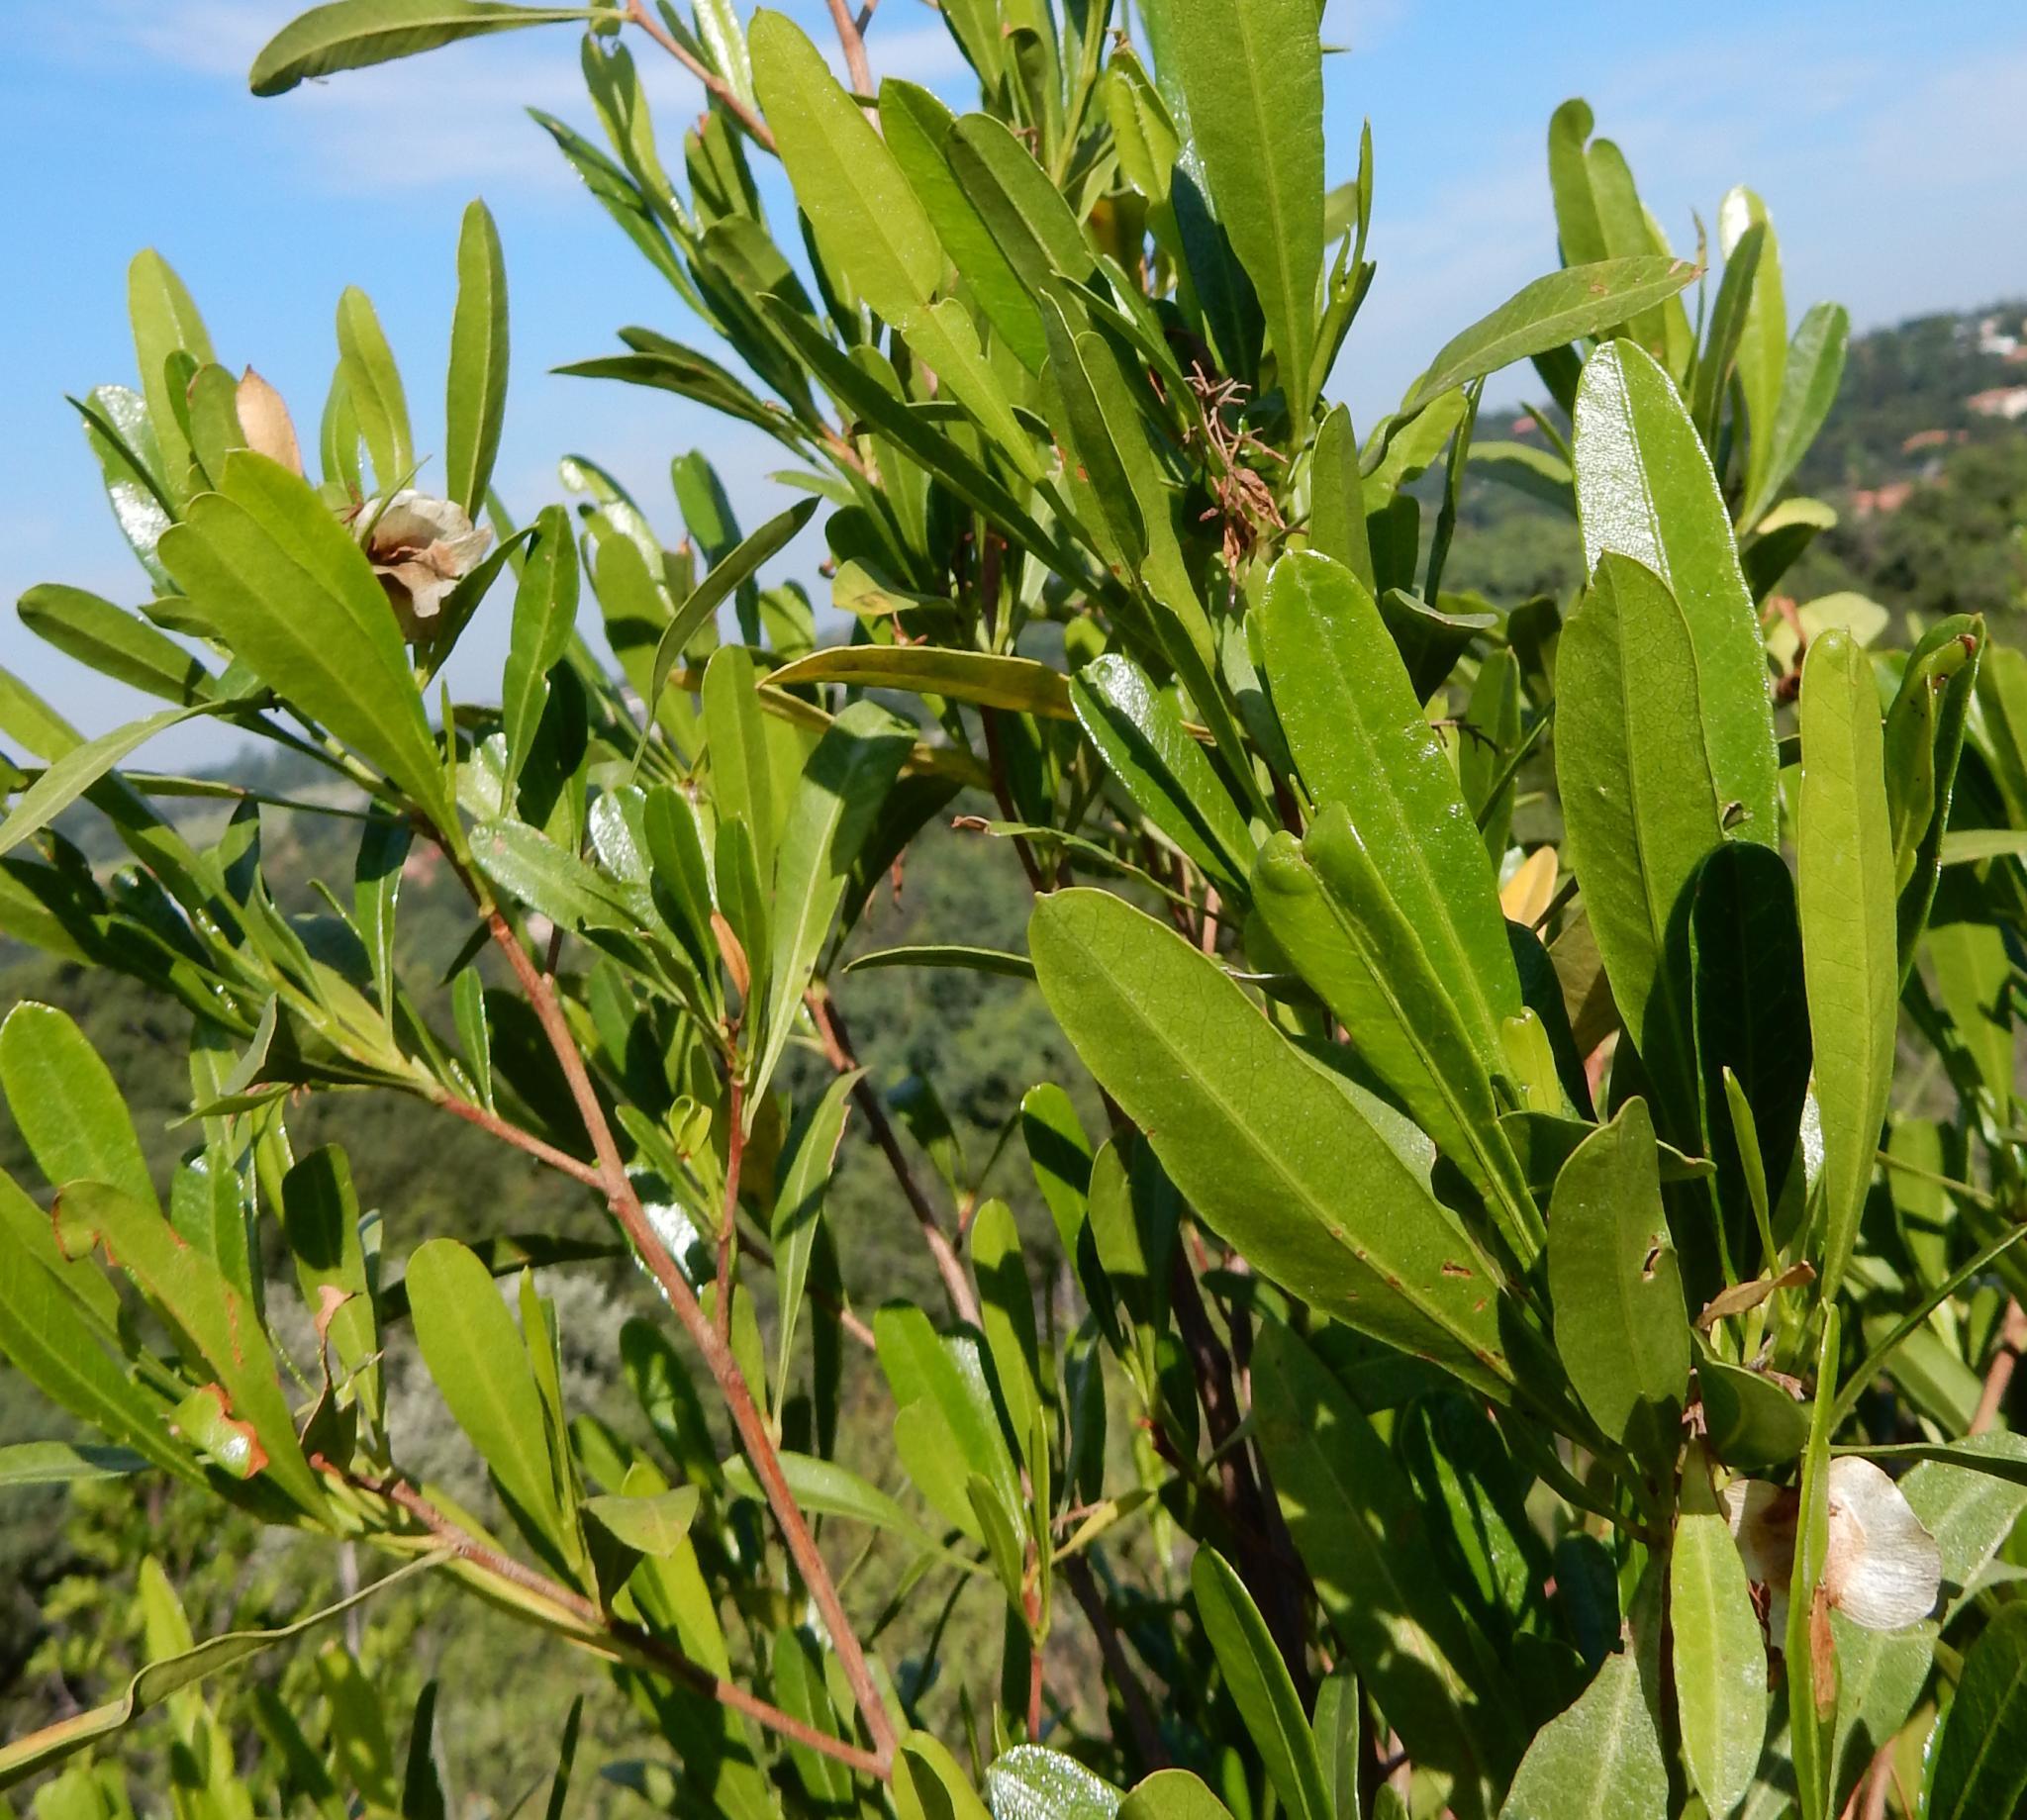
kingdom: Plantae
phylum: Tracheophyta
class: Magnoliopsida
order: Sapindales
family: Sapindaceae
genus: Dodonaea
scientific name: Dodonaea viscosa
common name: Hopbush
